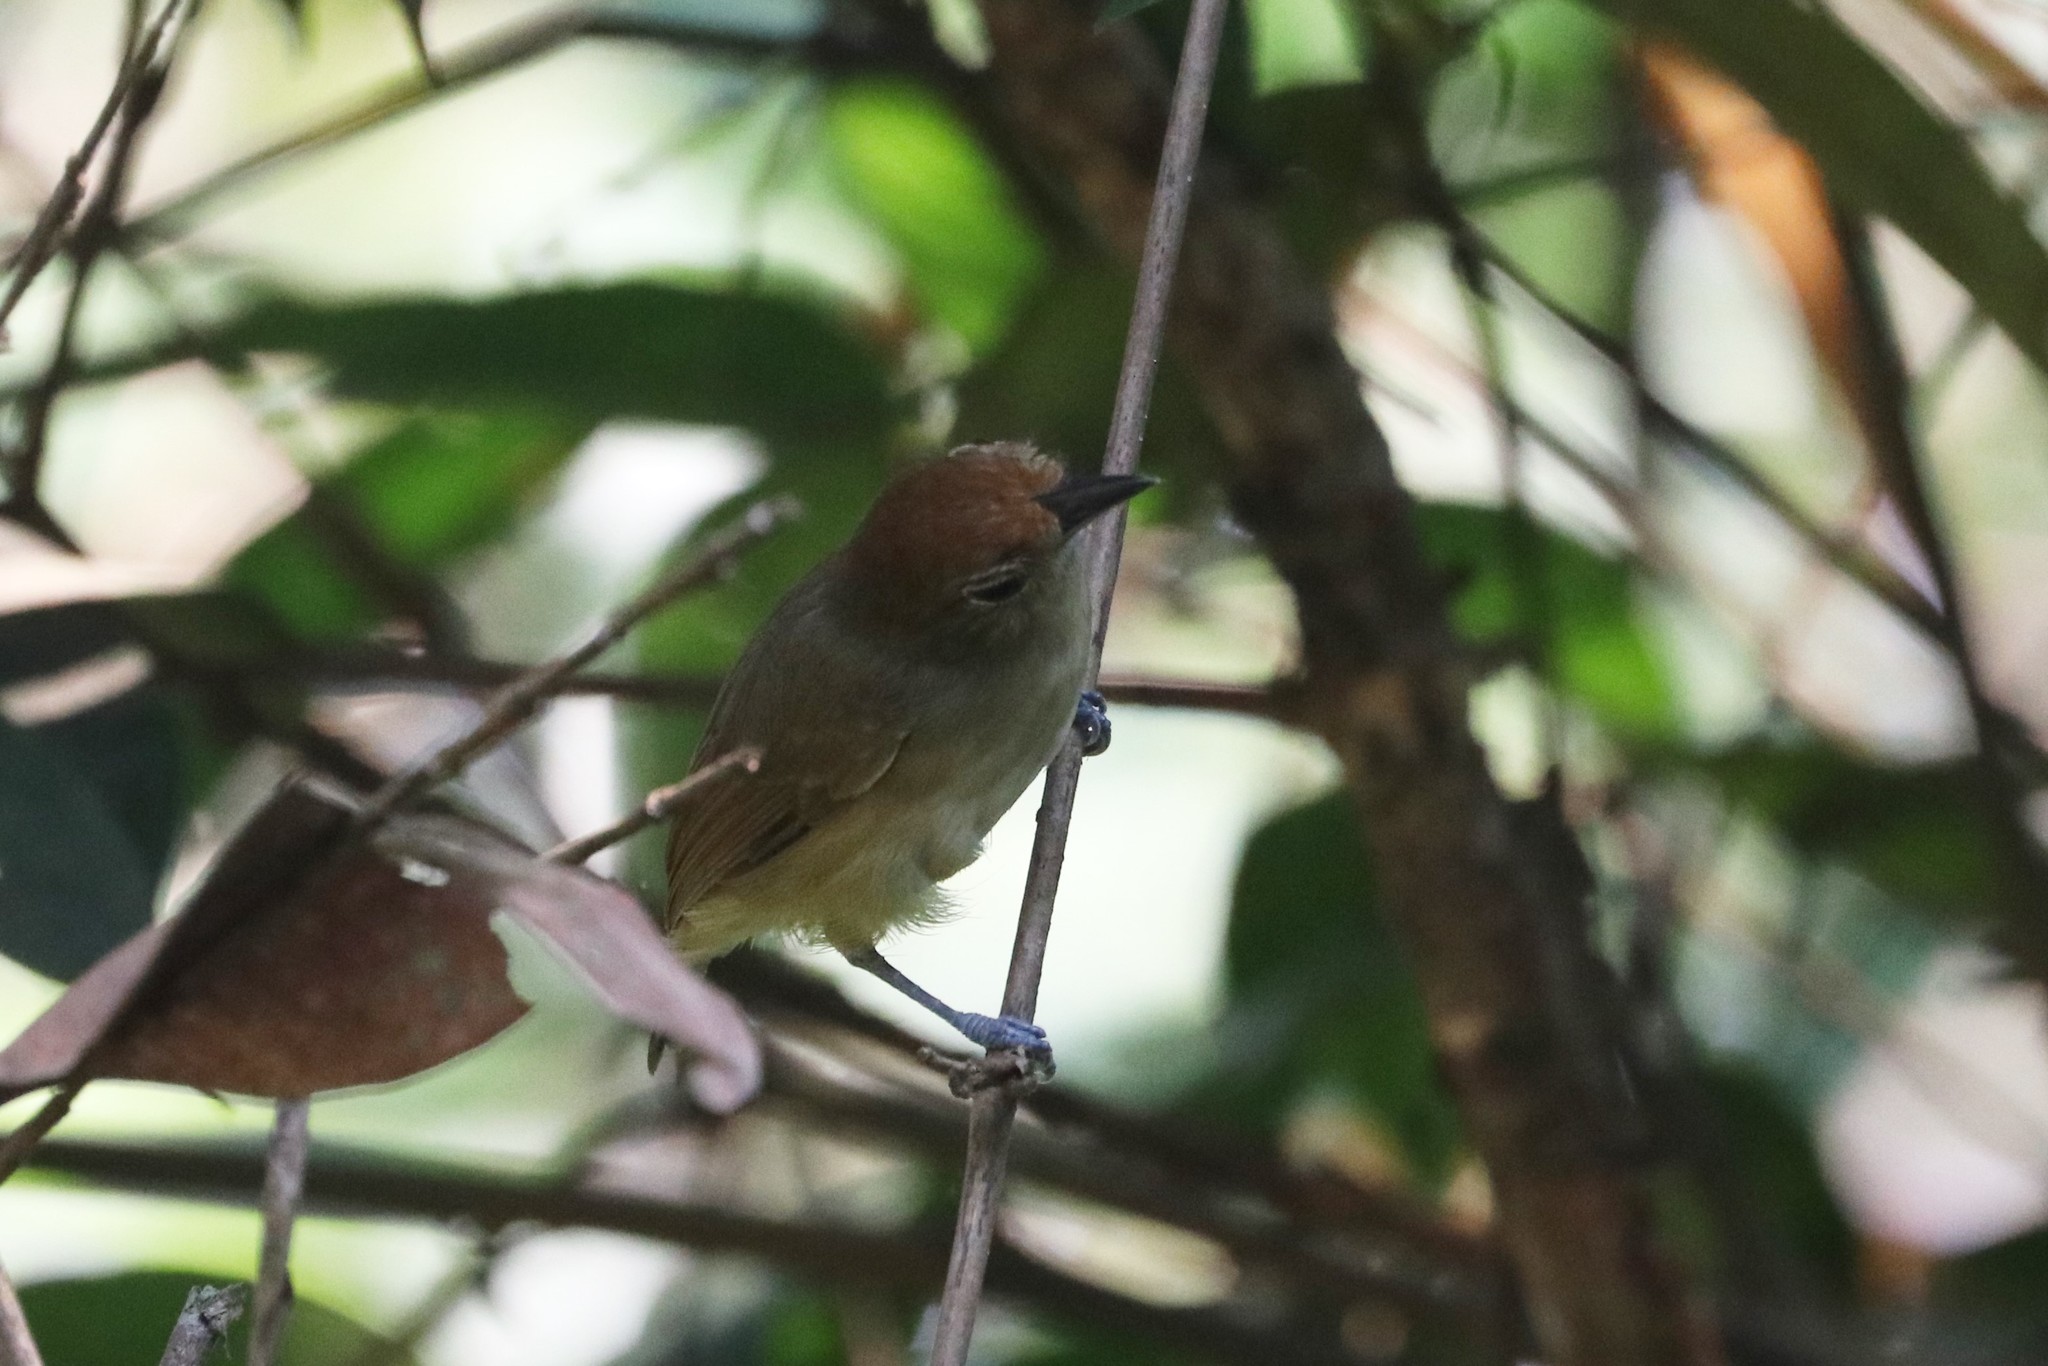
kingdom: Animalia
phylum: Chordata
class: Aves
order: Passeriformes
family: Thamnophilidae
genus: Dysithamnus
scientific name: Dysithamnus mentalis
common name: Plain antvireo
